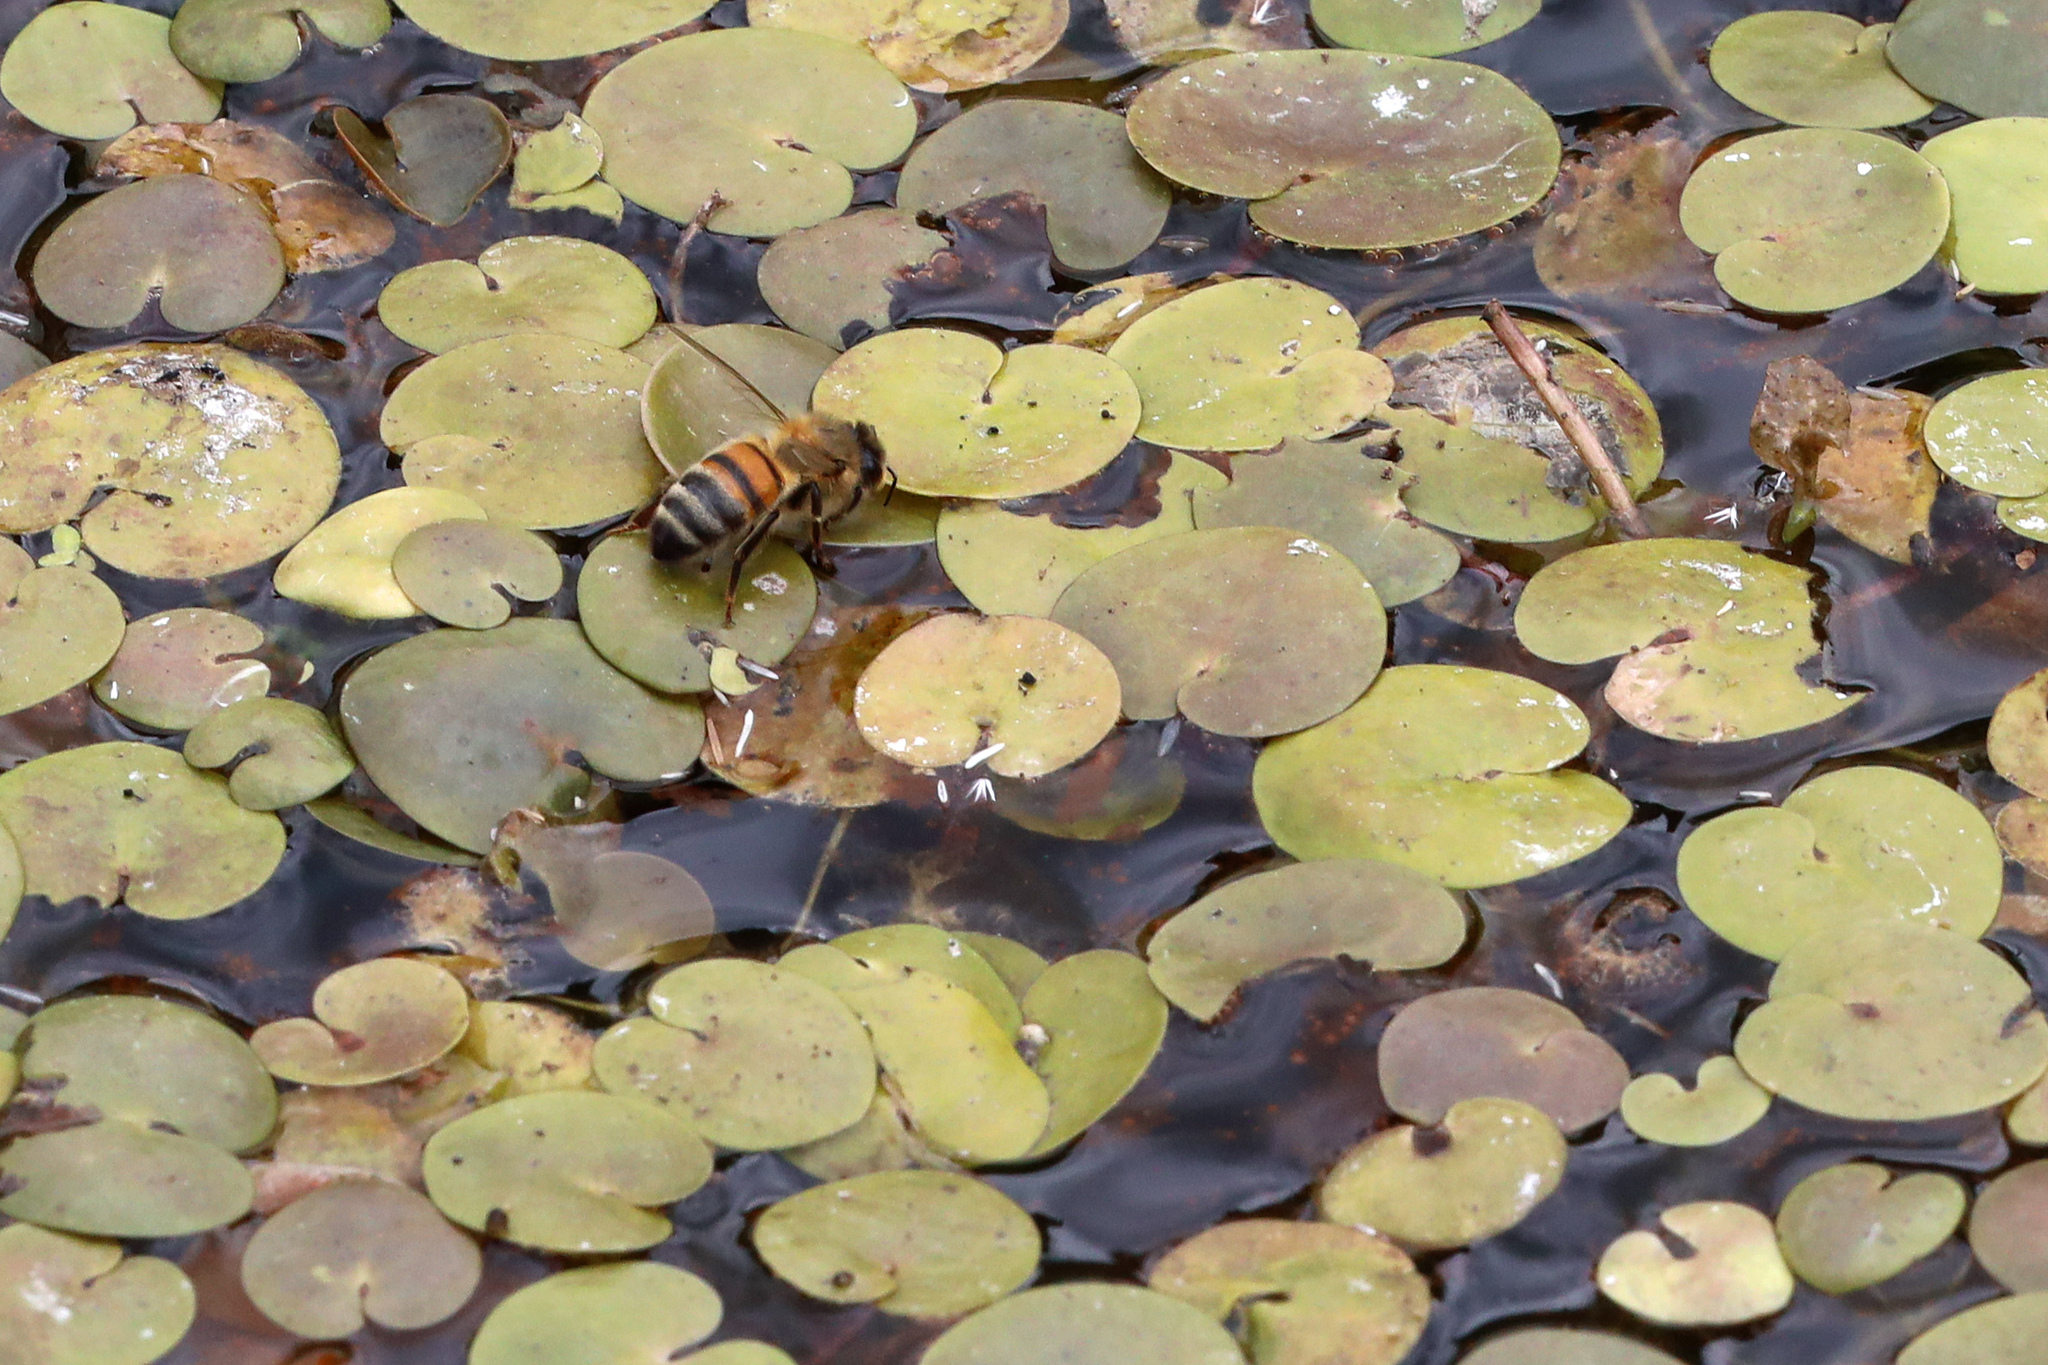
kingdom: Plantae
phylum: Tracheophyta
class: Liliopsida
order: Alismatales
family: Hydrocharitaceae
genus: Hydrocharis
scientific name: Hydrocharis morsus-ranae
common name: Frogbit
